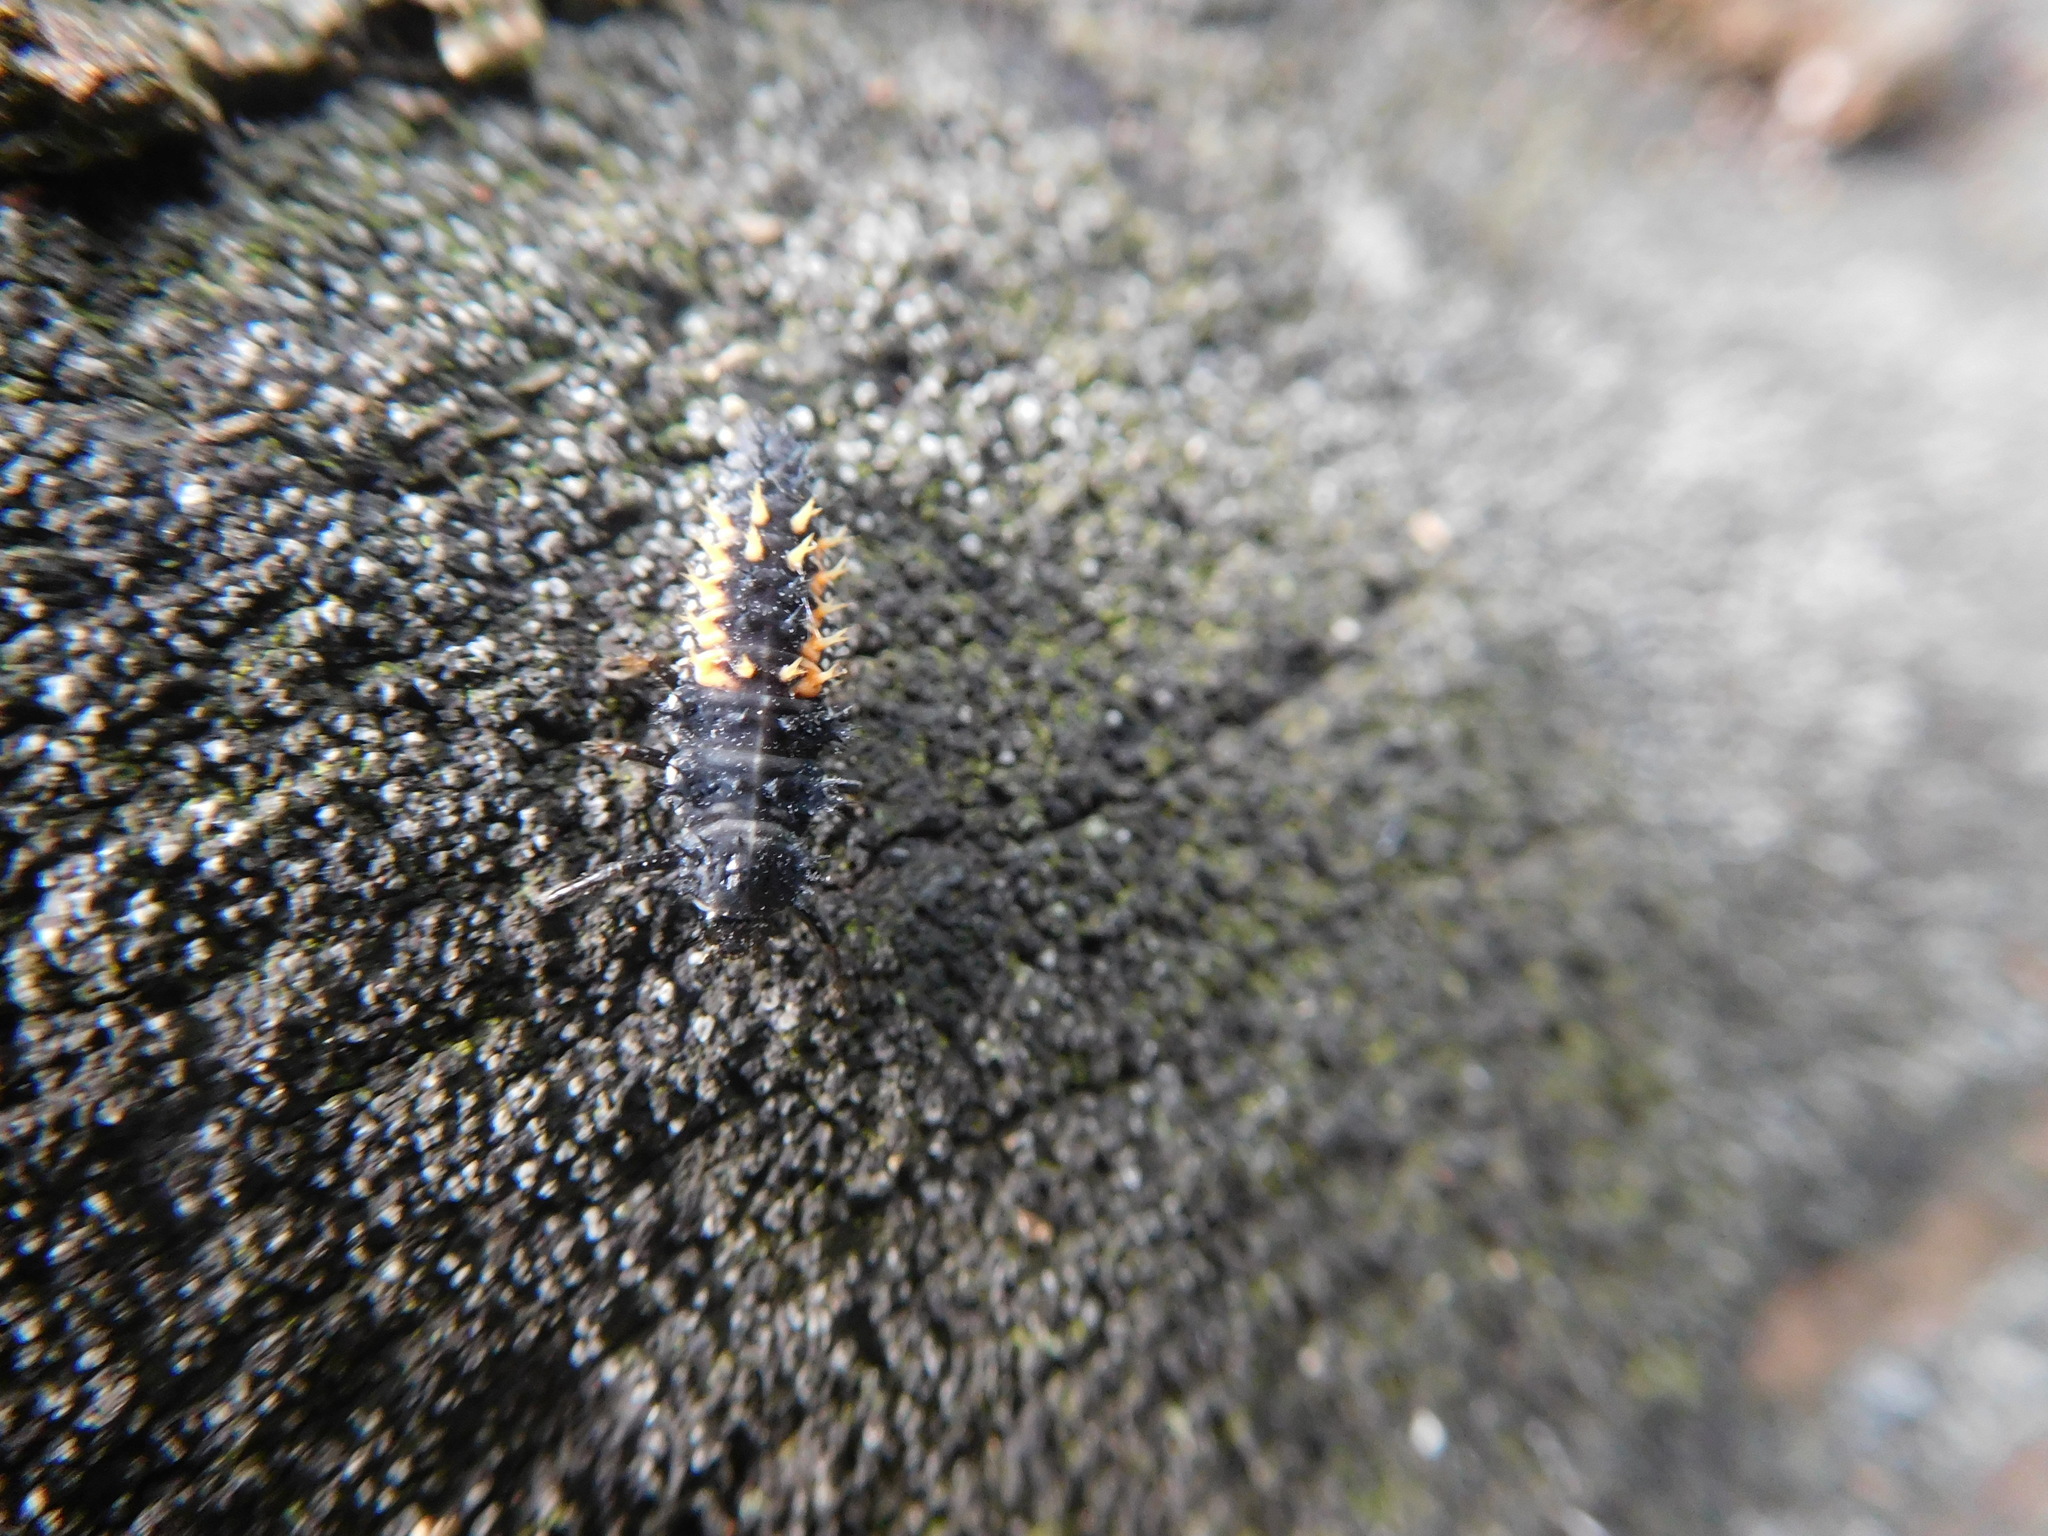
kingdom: Animalia
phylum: Arthropoda
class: Insecta
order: Coleoptera
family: Coccinellidae
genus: Harmonia
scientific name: Harmonia axyridis
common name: Harlequin ladybird
